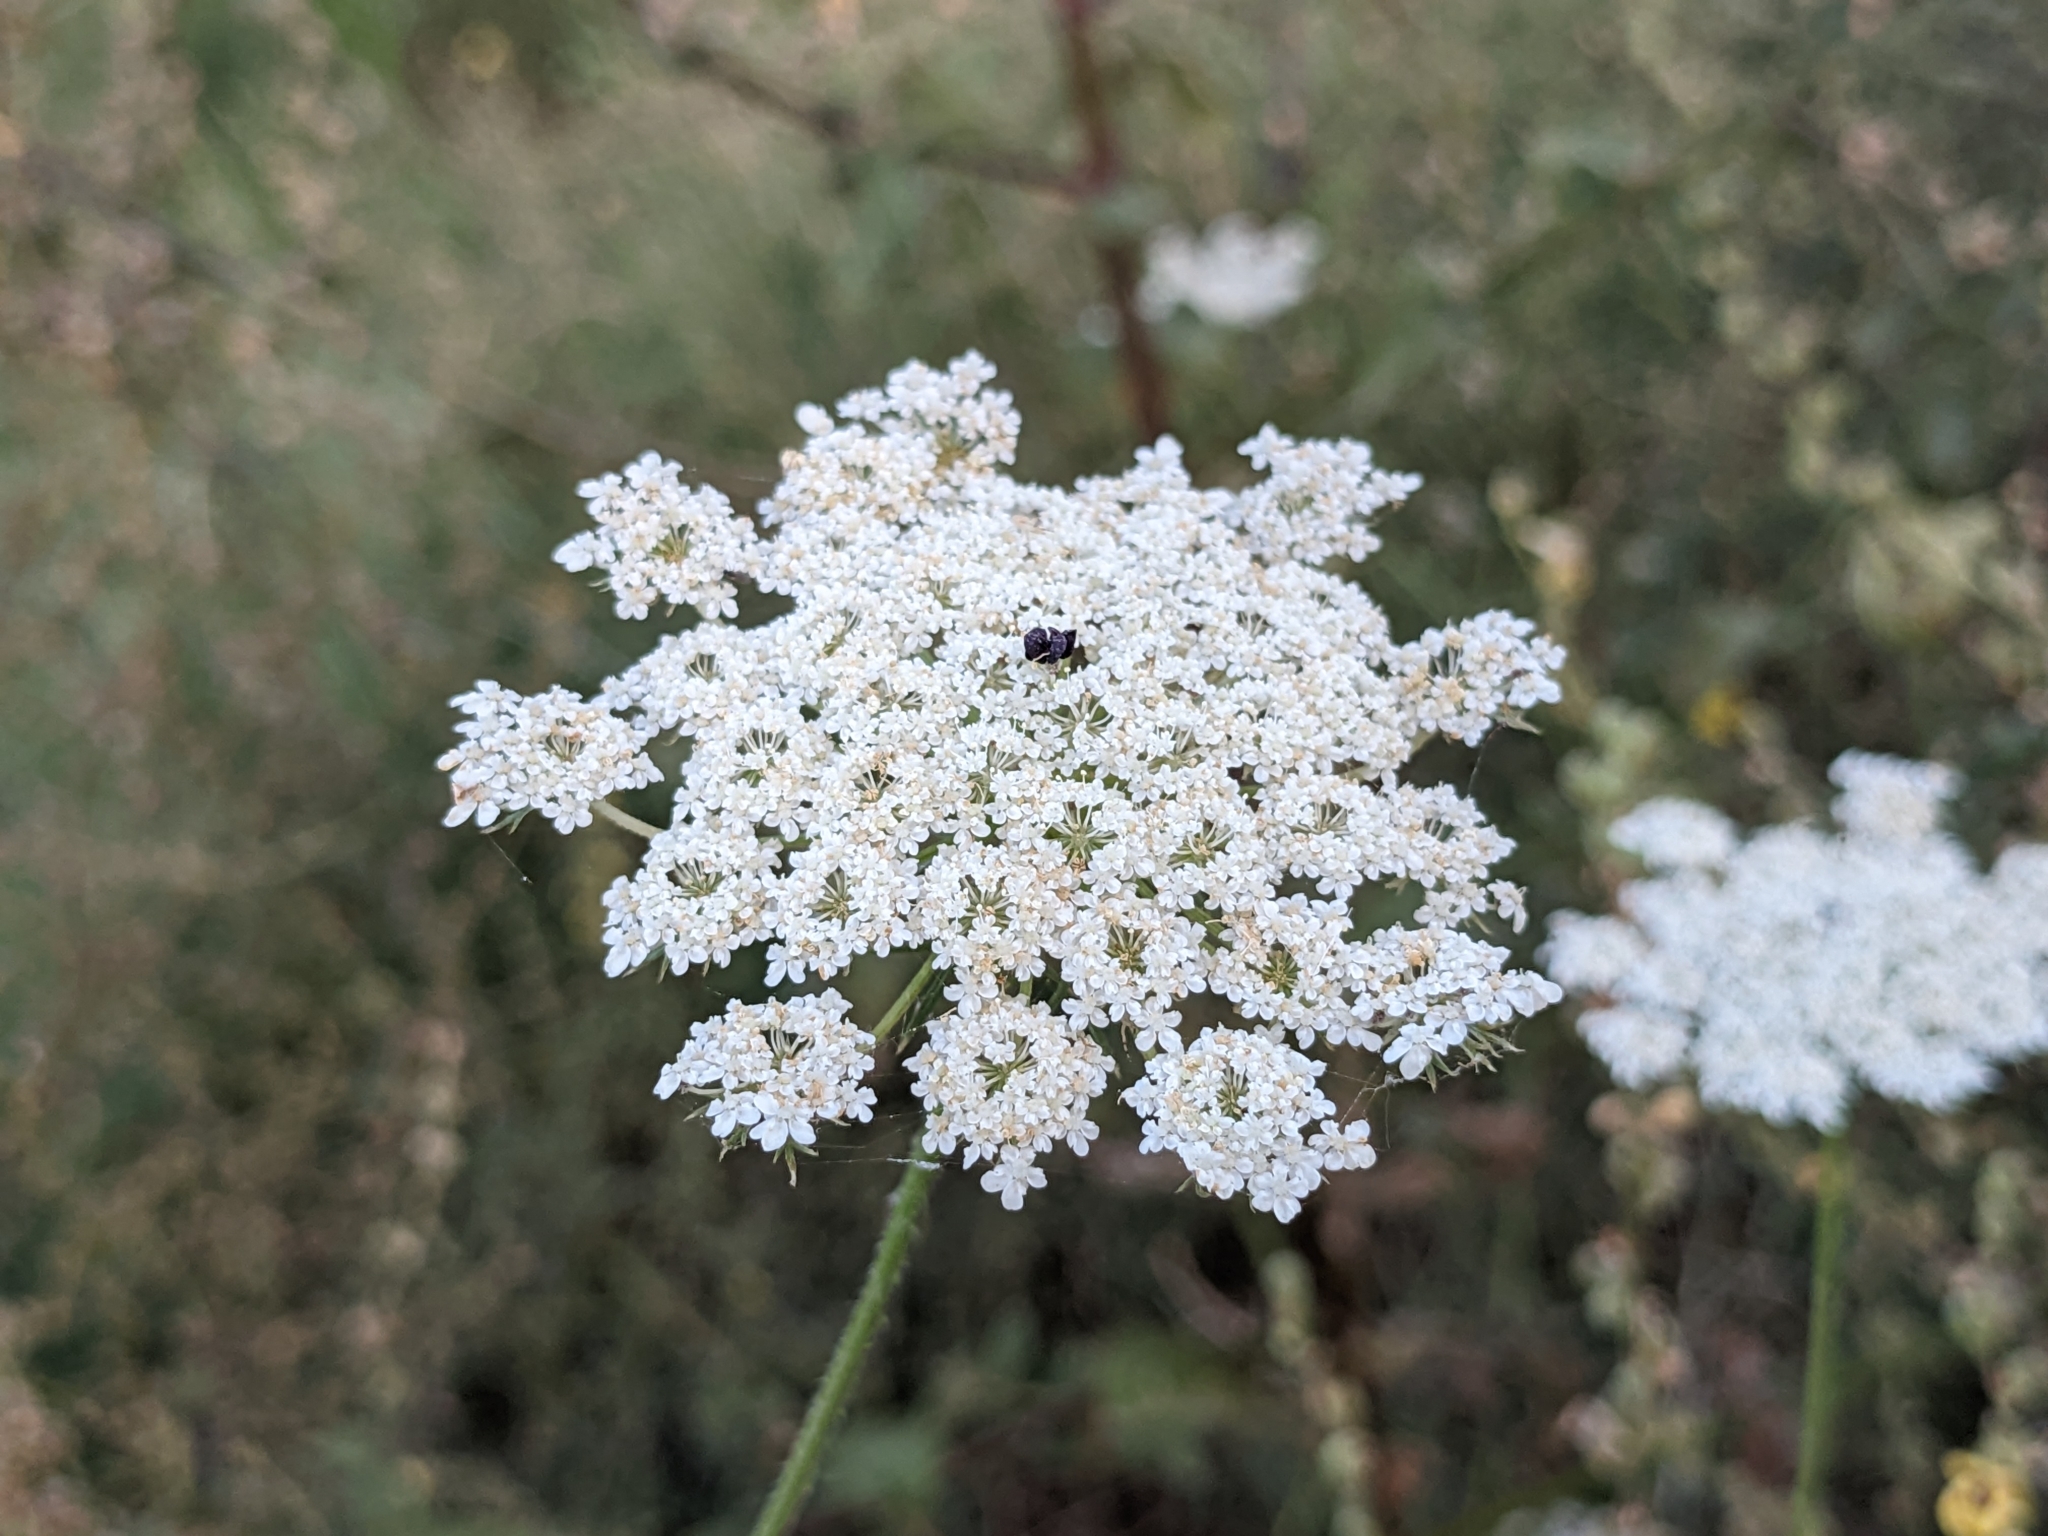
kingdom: Plantae
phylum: Tracheophyta
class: Magnoliopsida
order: Apiales
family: Apiaceae
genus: Daucus
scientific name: Daucus carota
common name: Wild carrot
